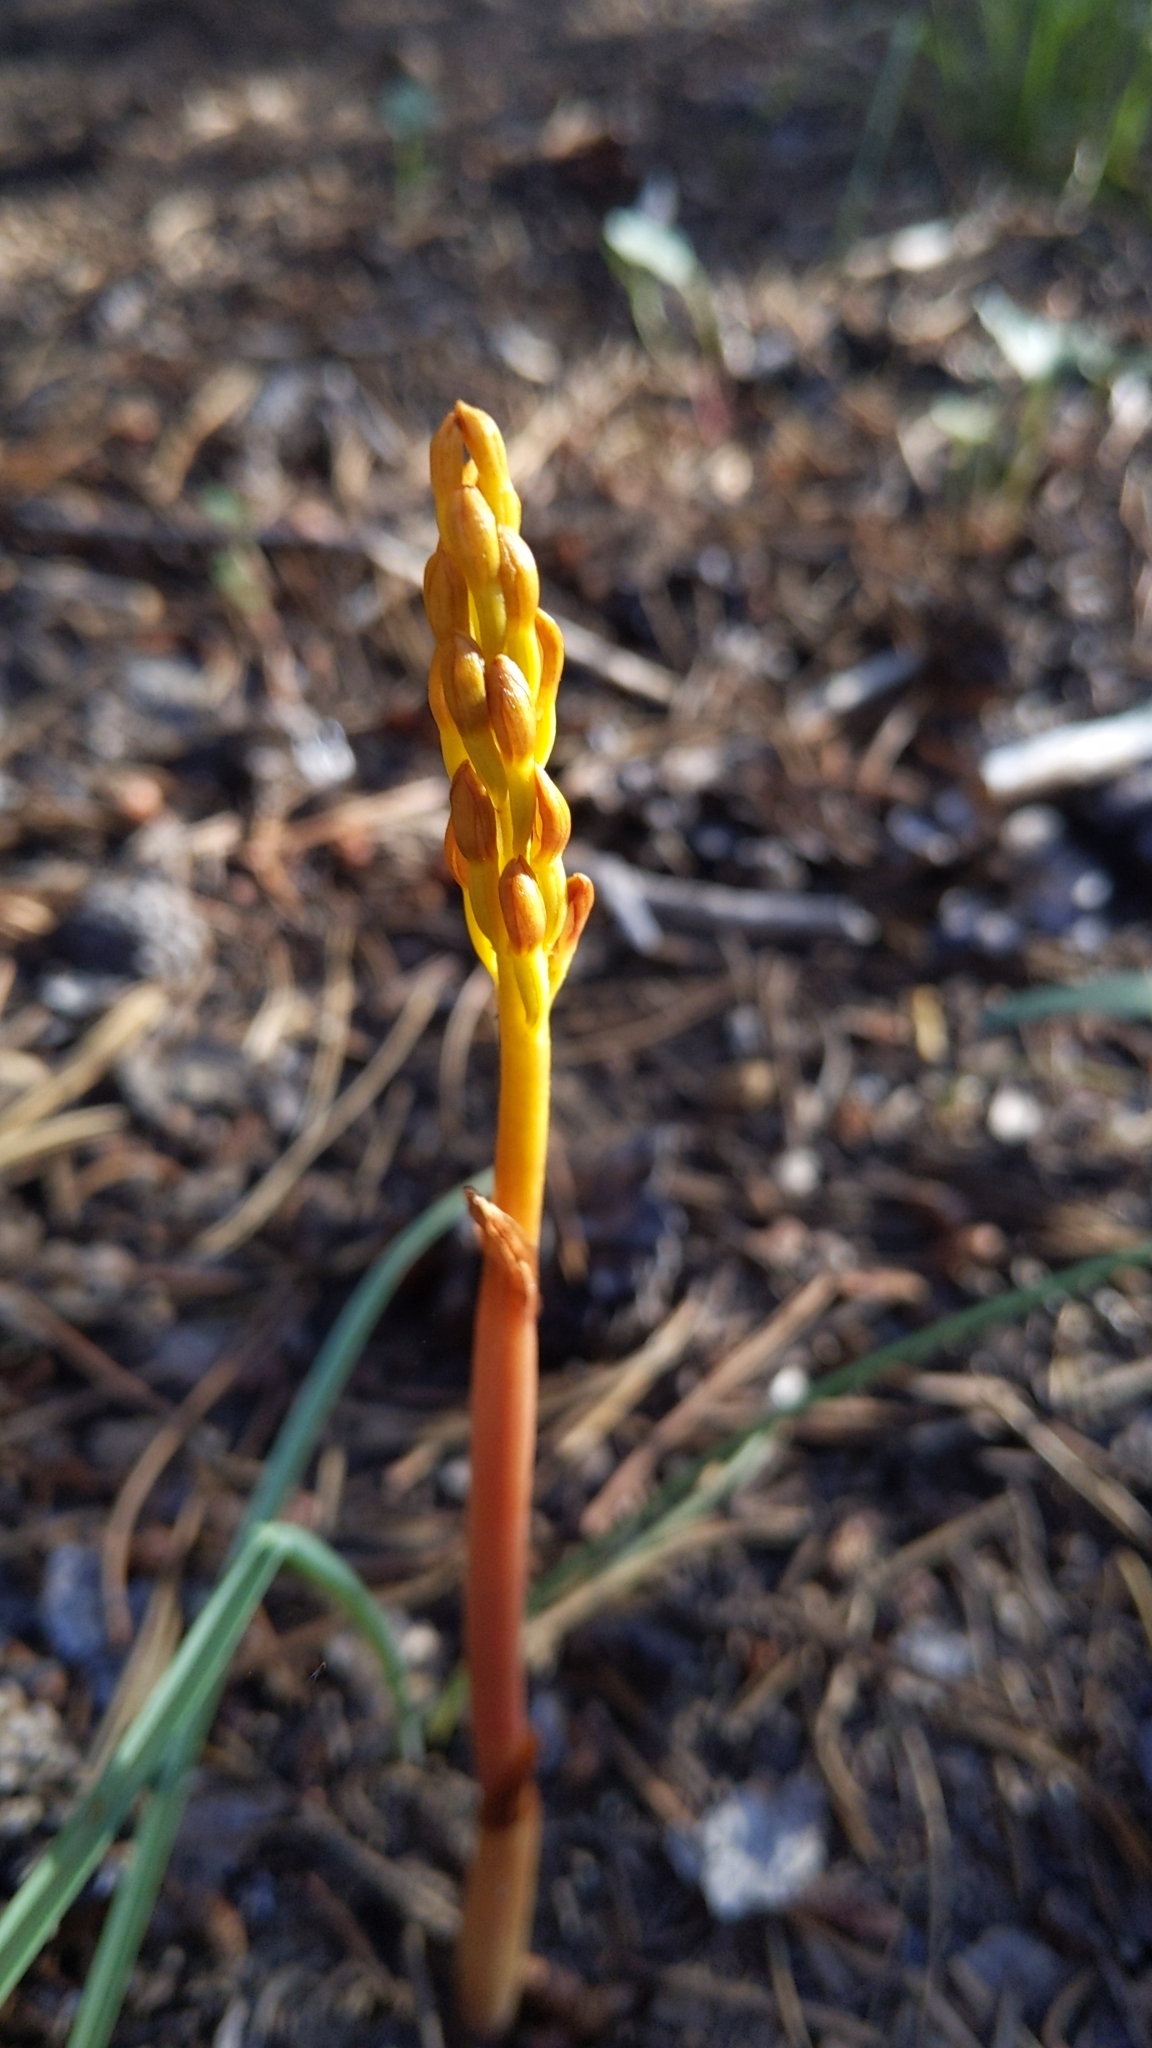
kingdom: Plantae
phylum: Tracheophyta
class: Liliopsida
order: Asparagales
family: Orchidaceae
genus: Corallorhiza
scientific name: Corallorhiza maculata
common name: Spotted coralroot
